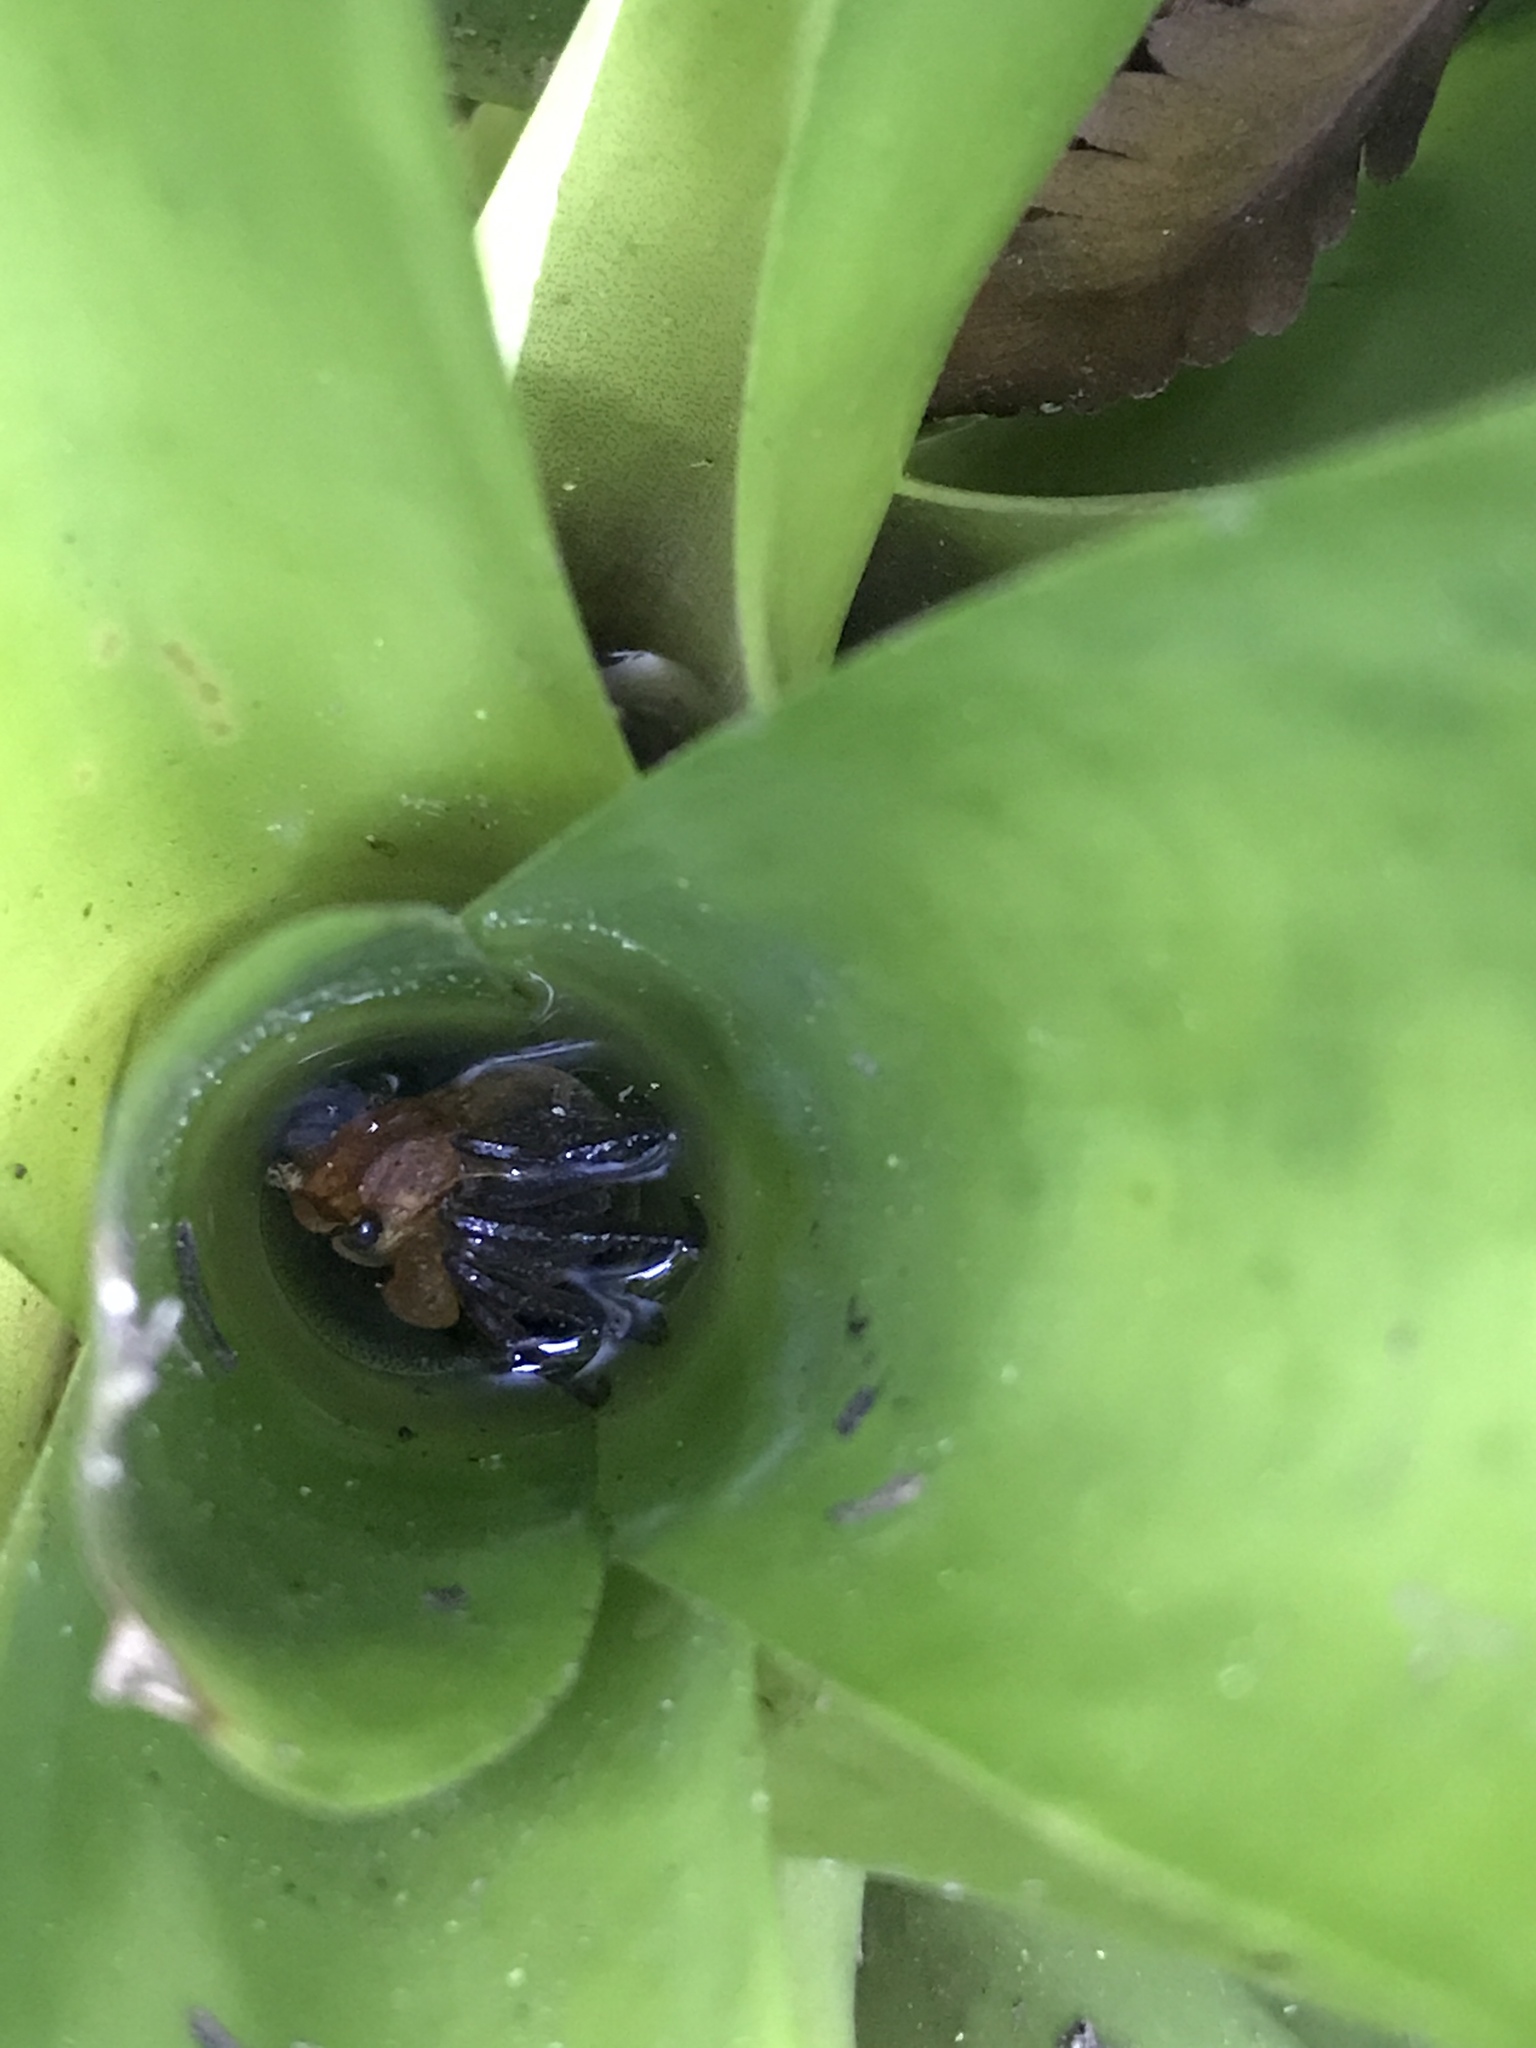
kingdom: Animalia
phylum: Arthropoda
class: Malacostraca
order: Decapoda
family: Sesarmidae
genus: Geosesarma
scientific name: Geosesarma faustum
